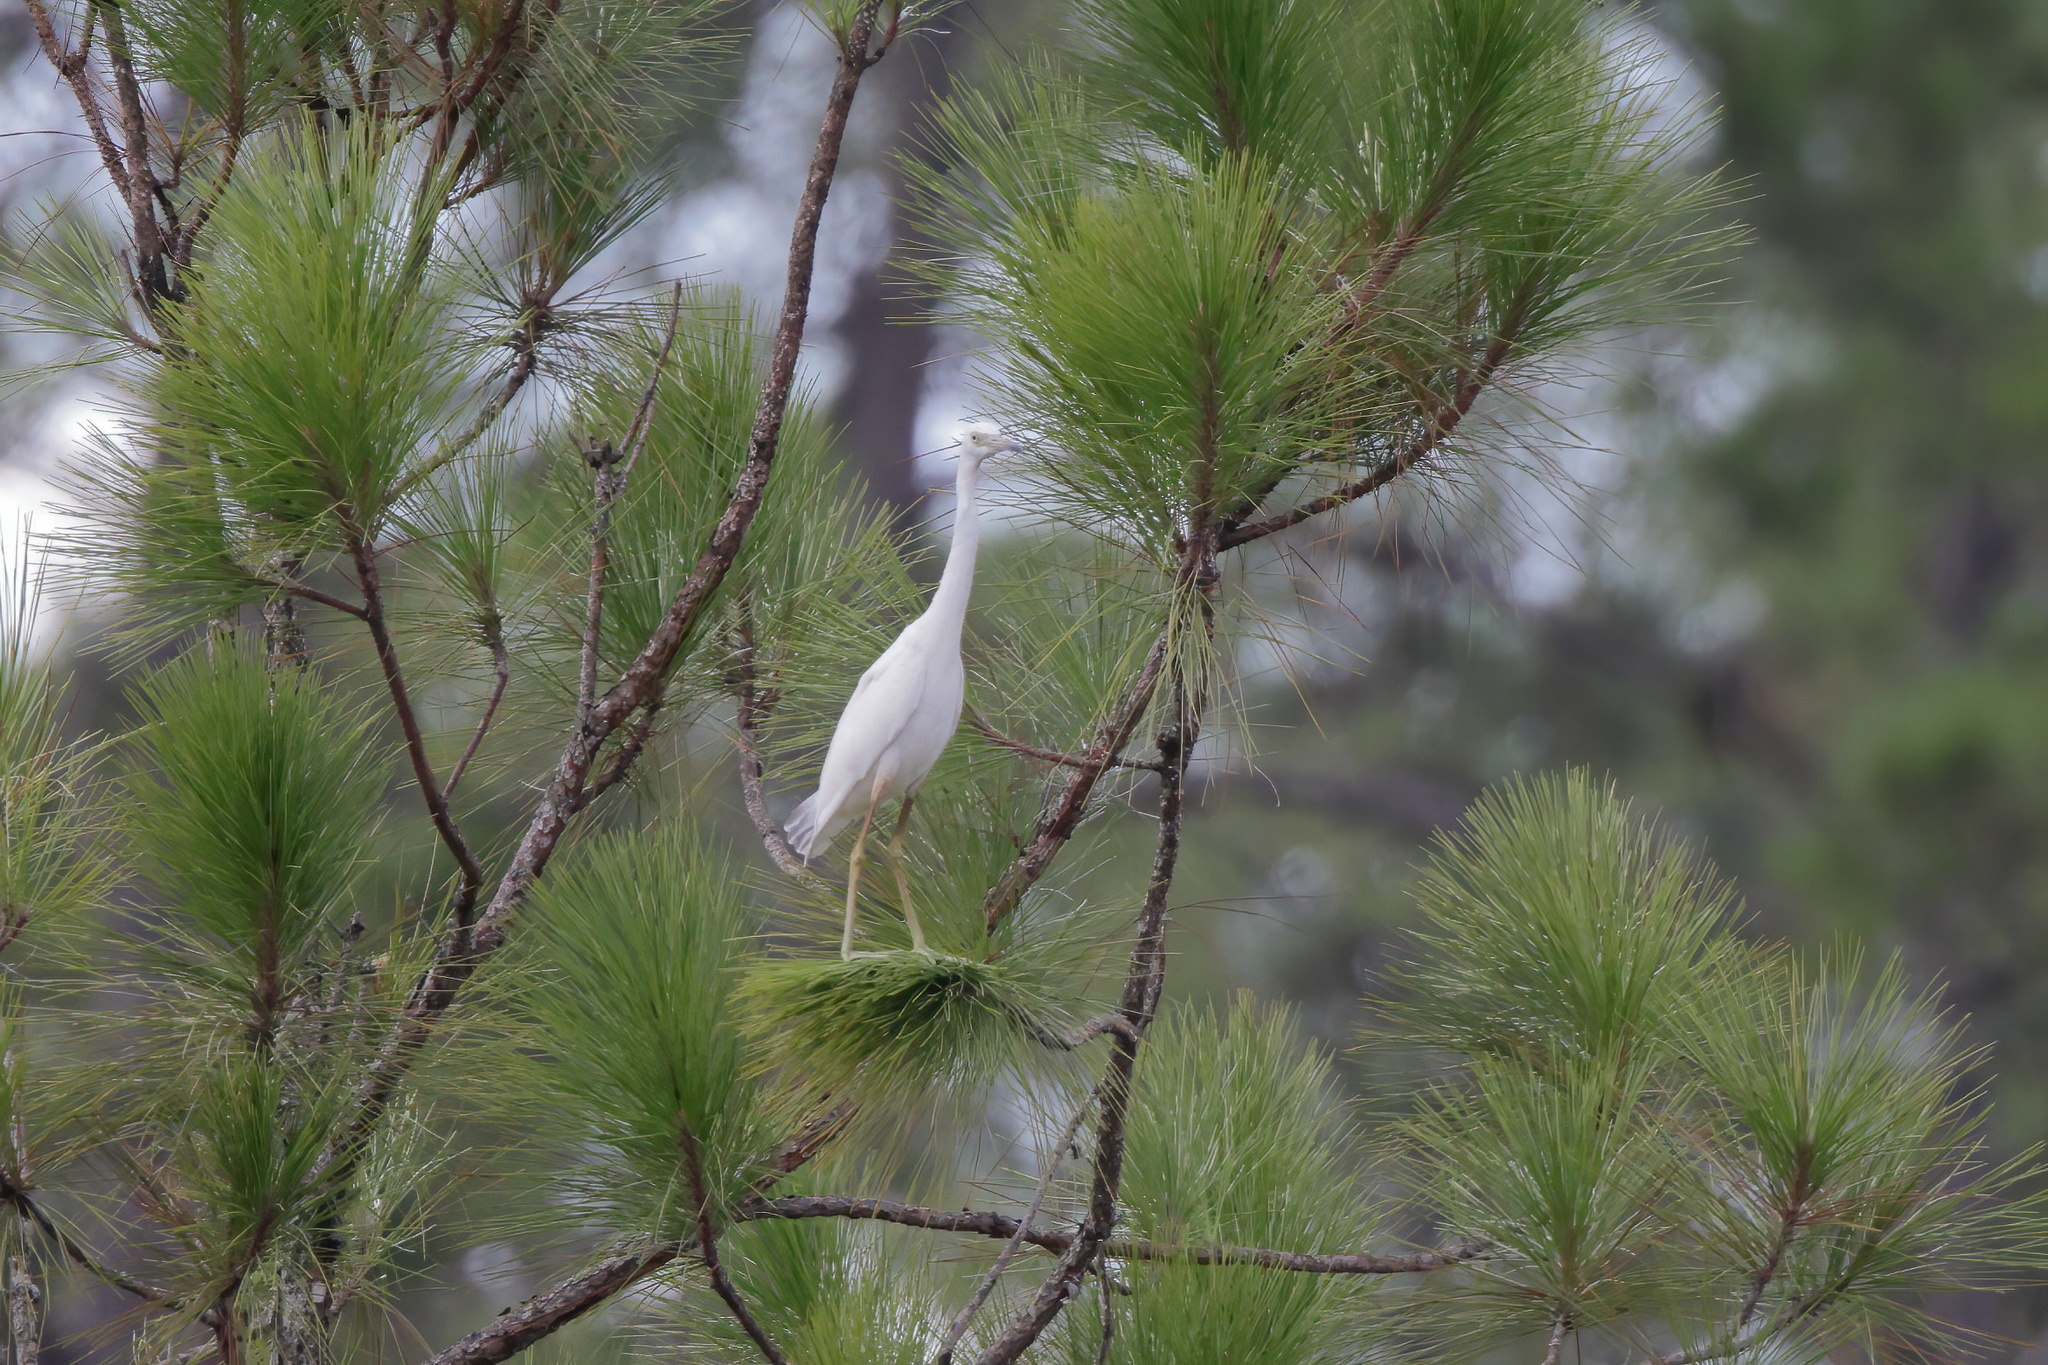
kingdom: Animalia
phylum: Chordata
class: Aves
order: Pelecaniformes
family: Ardeidae
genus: Egretta
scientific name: Egretta caerulea
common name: Little blue heron
